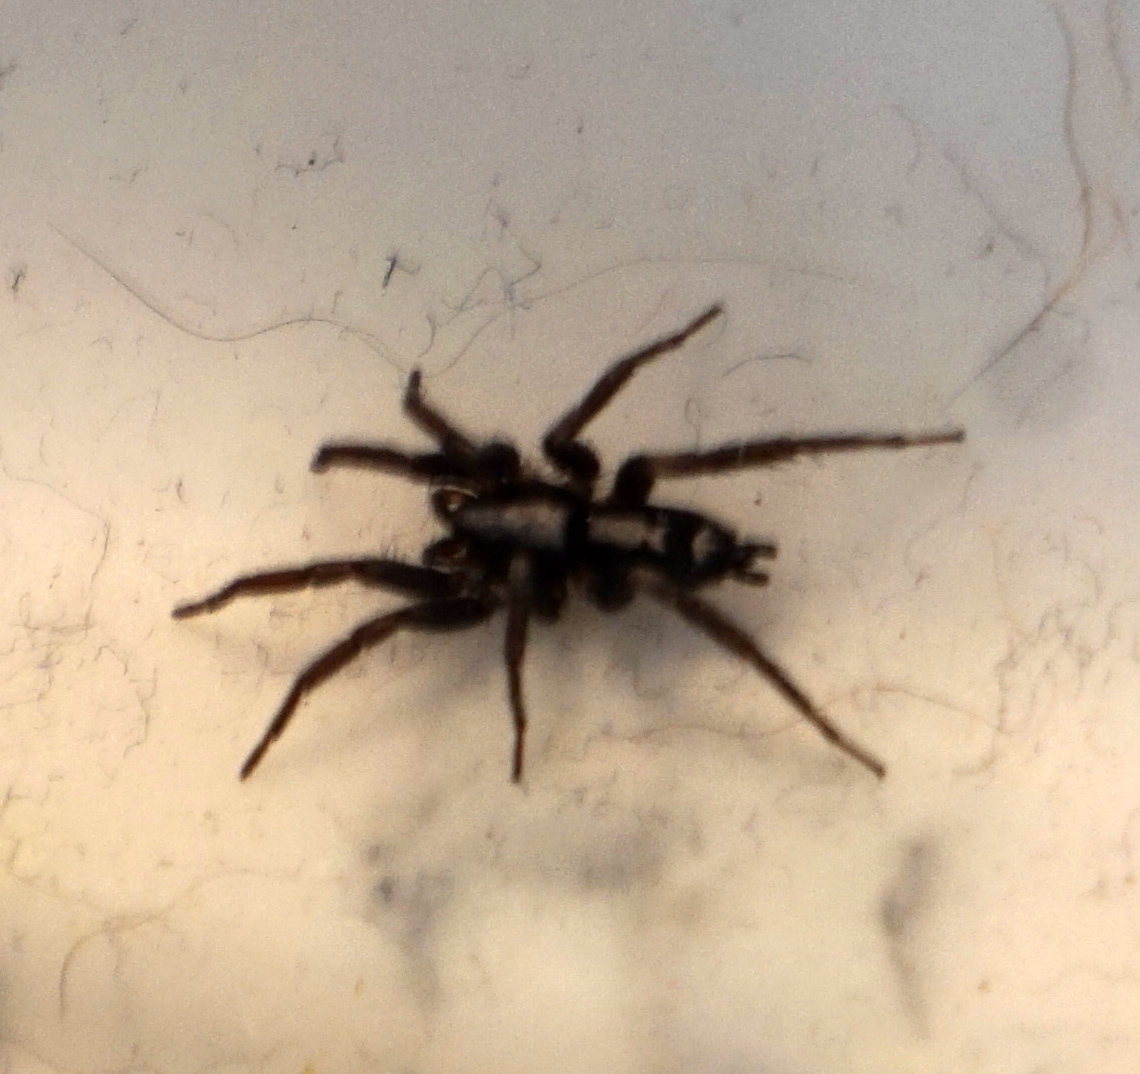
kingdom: Animalia
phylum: Arthropoda
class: Arachnida
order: Araneae
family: Gnaphosidae
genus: Herpyllus
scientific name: Herpyllus ecclesiasticus
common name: Eastern parson spider
